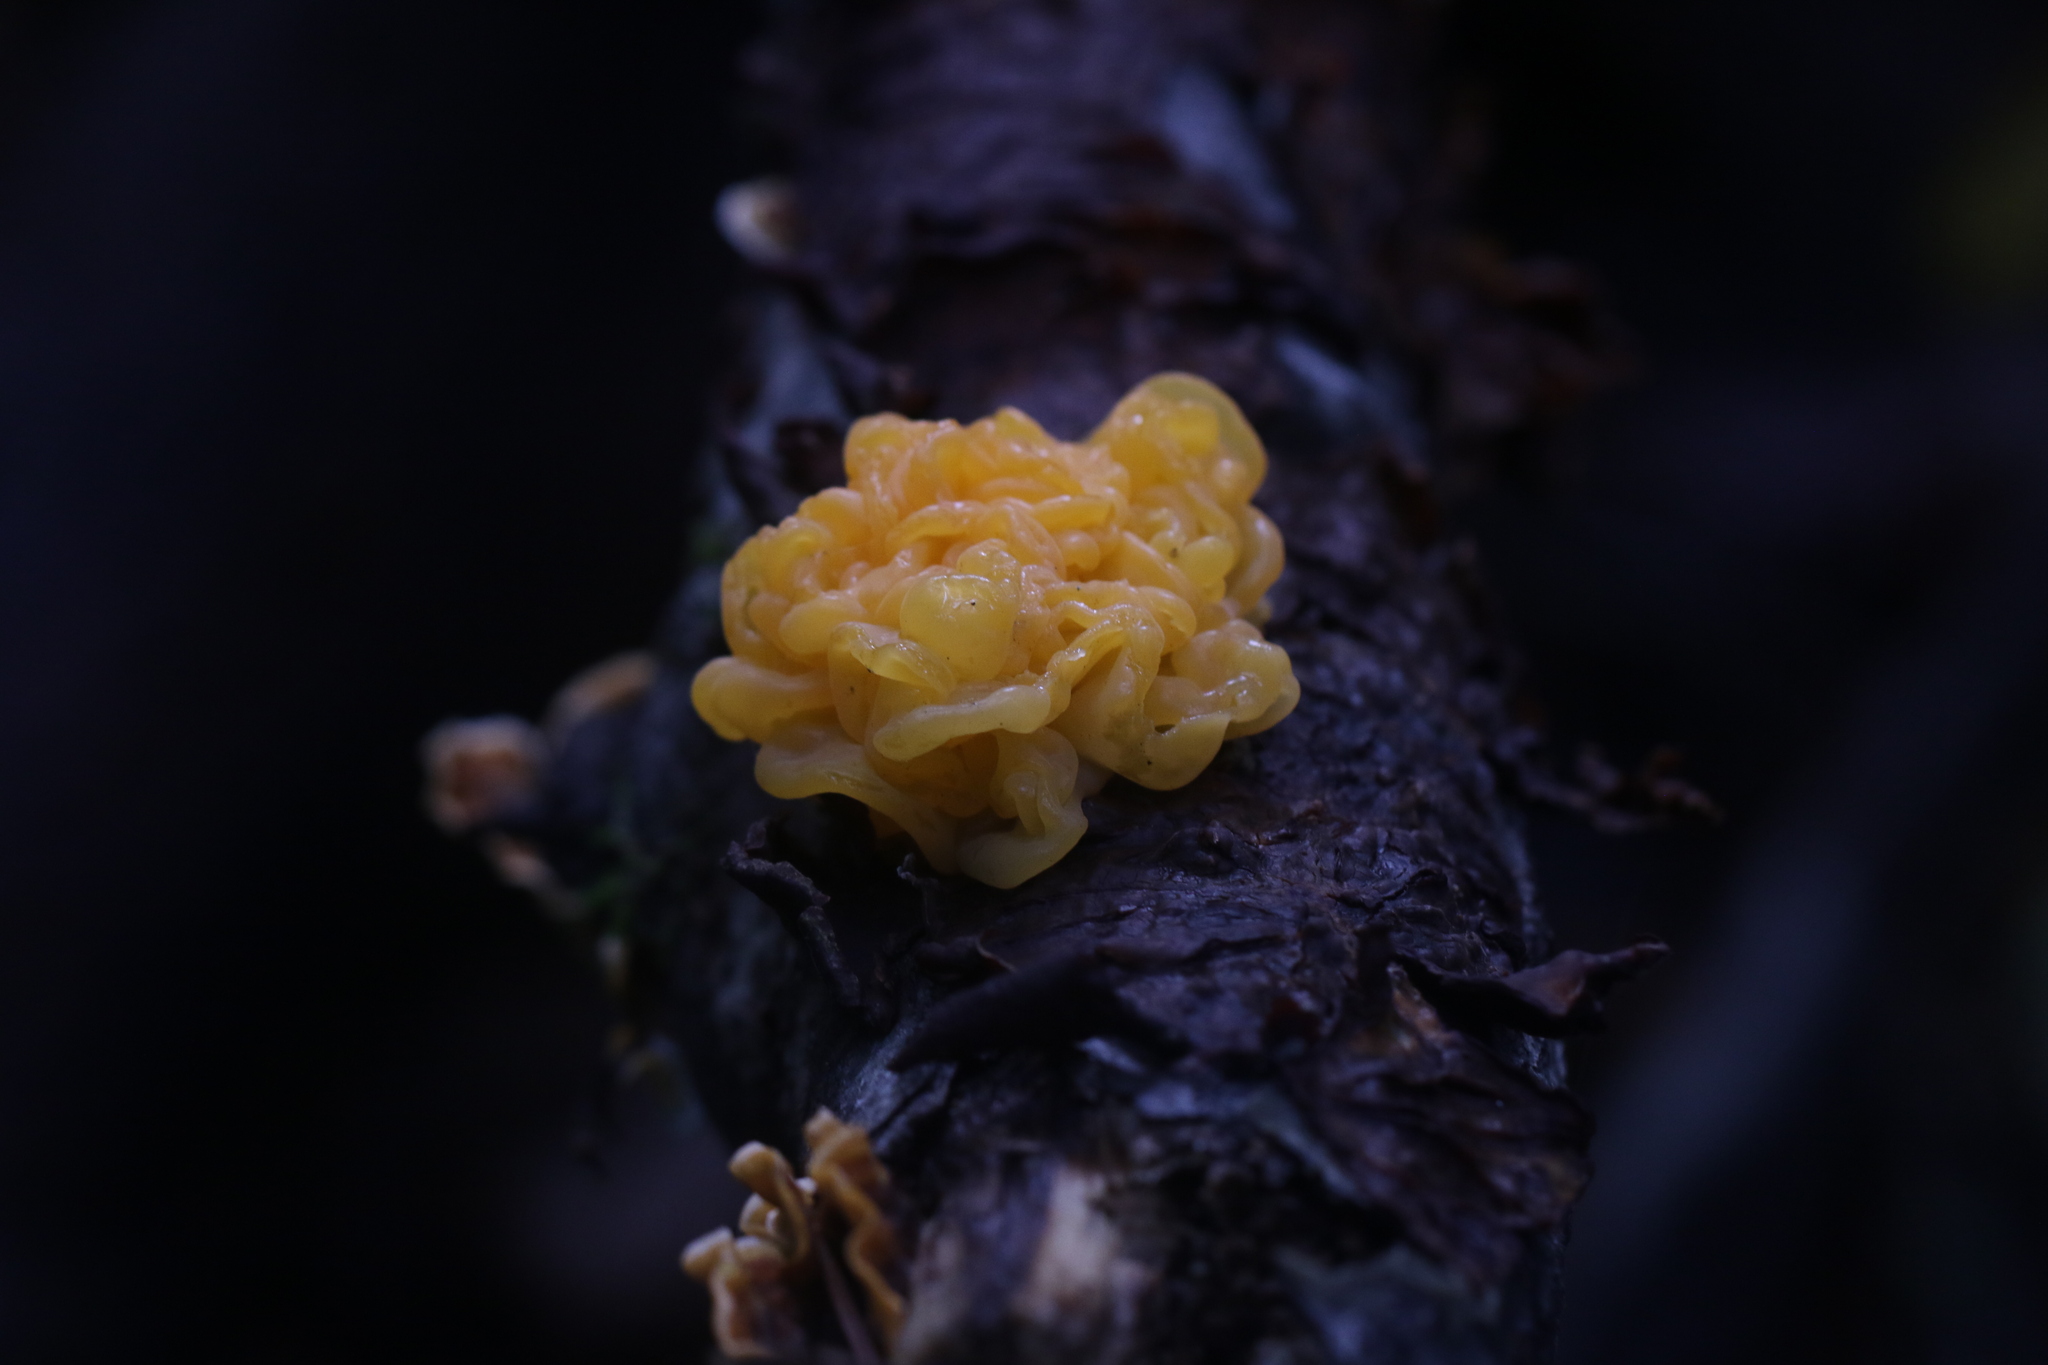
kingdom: Fungi
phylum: Basidiomycota
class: Tremellomycetes
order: Tremellales
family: Naemateliaceae
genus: Naematelia
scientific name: Naematelia aurantia
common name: Golden ear
